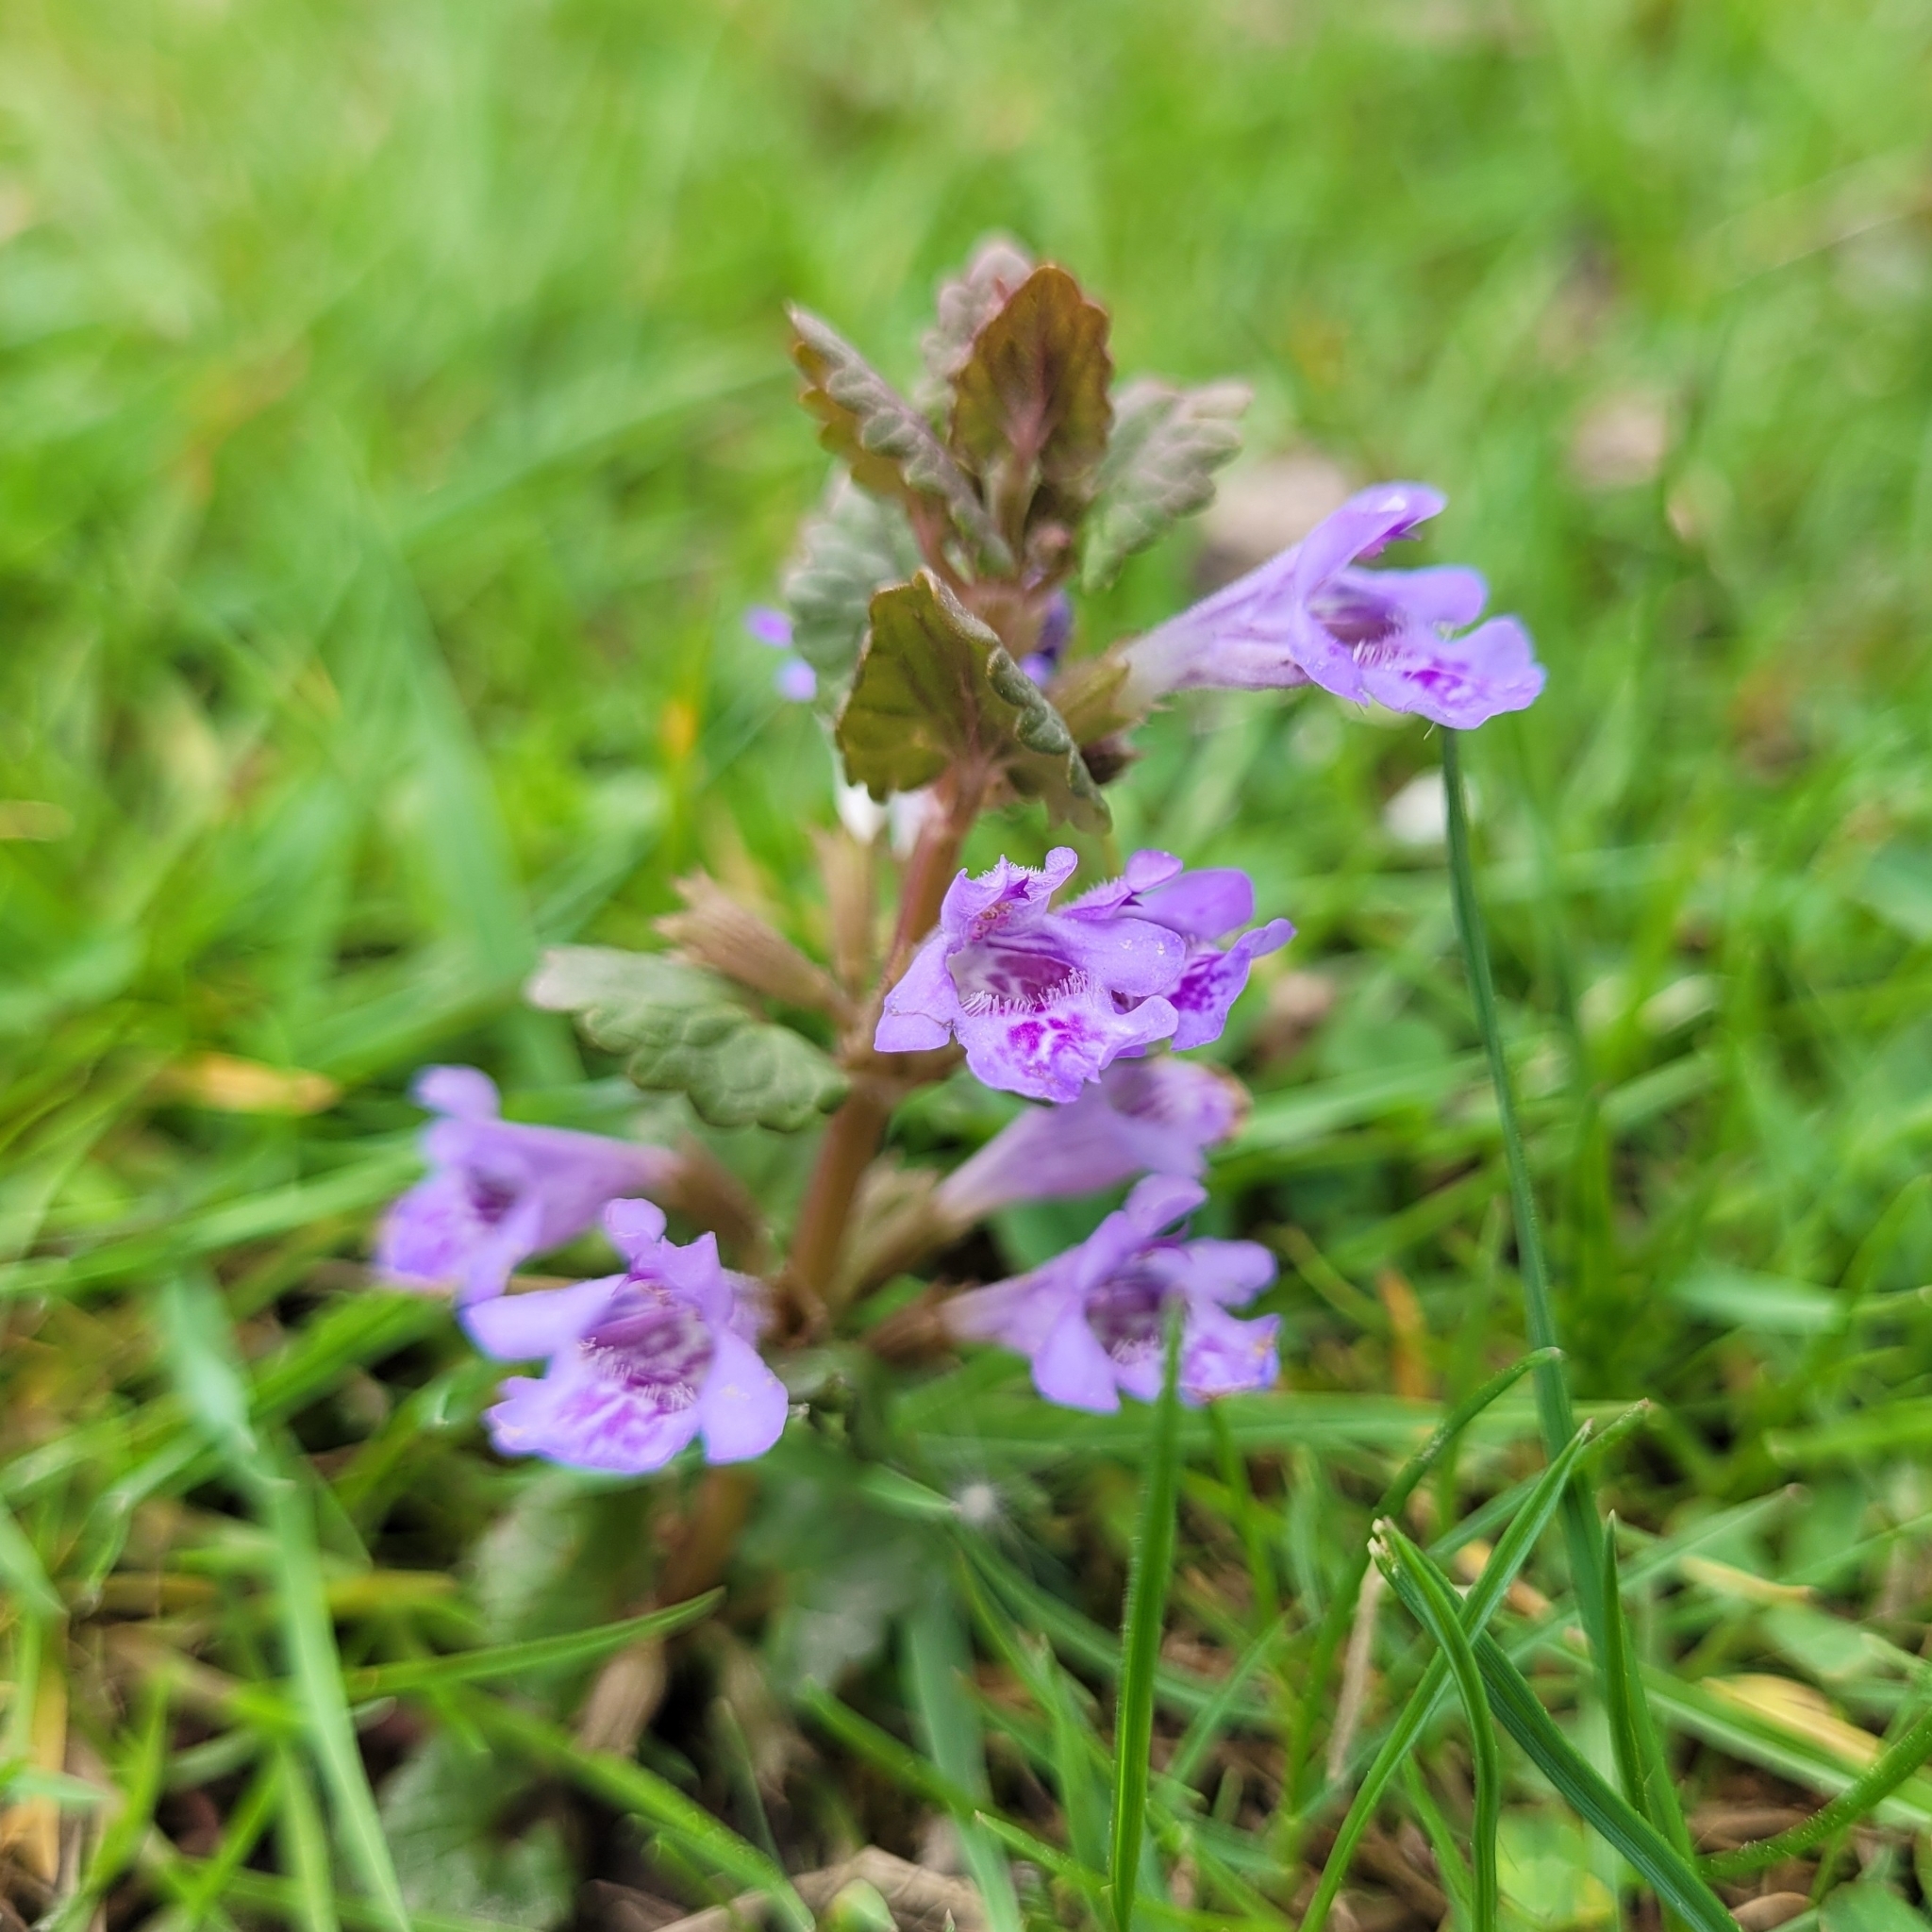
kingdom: Plantae
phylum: Tracheophyta
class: Magnoliopsida
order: Lamiales
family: Lamiaceae
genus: Glechoma
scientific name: Glechoma hederacea
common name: Ground ivy
